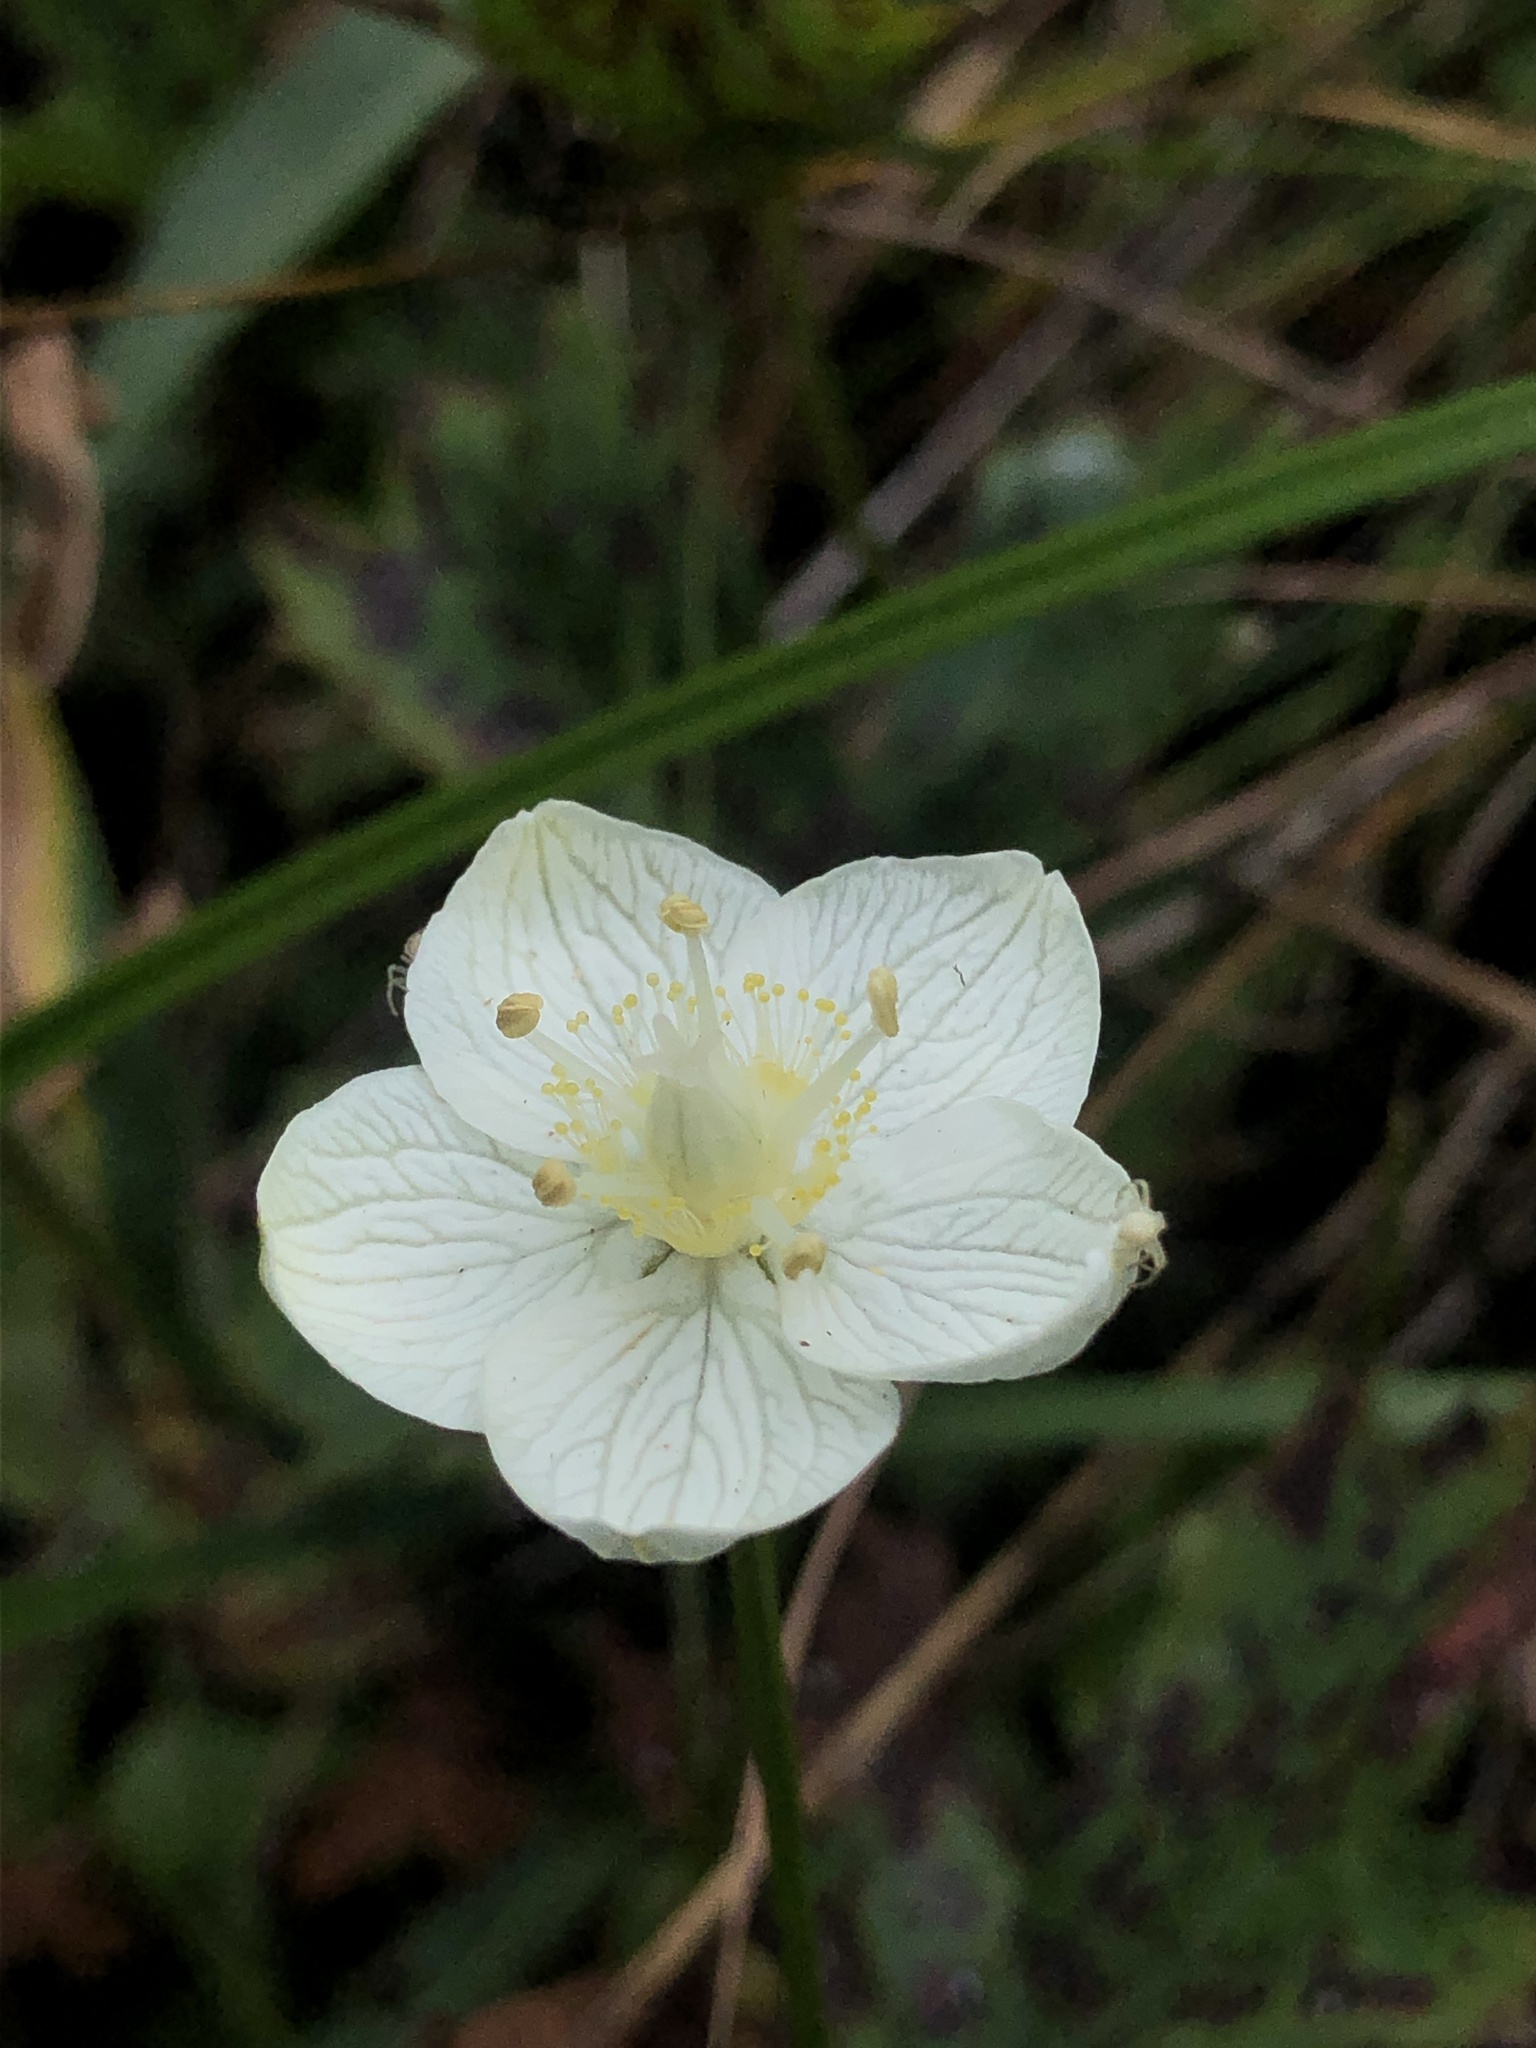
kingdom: Plantae
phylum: Tracheophyta
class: Magnoliopsida
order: Celastrales
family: Parnassiaceae
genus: Parnassia
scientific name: Parnassia palustris
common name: Grass-of-parnassus
